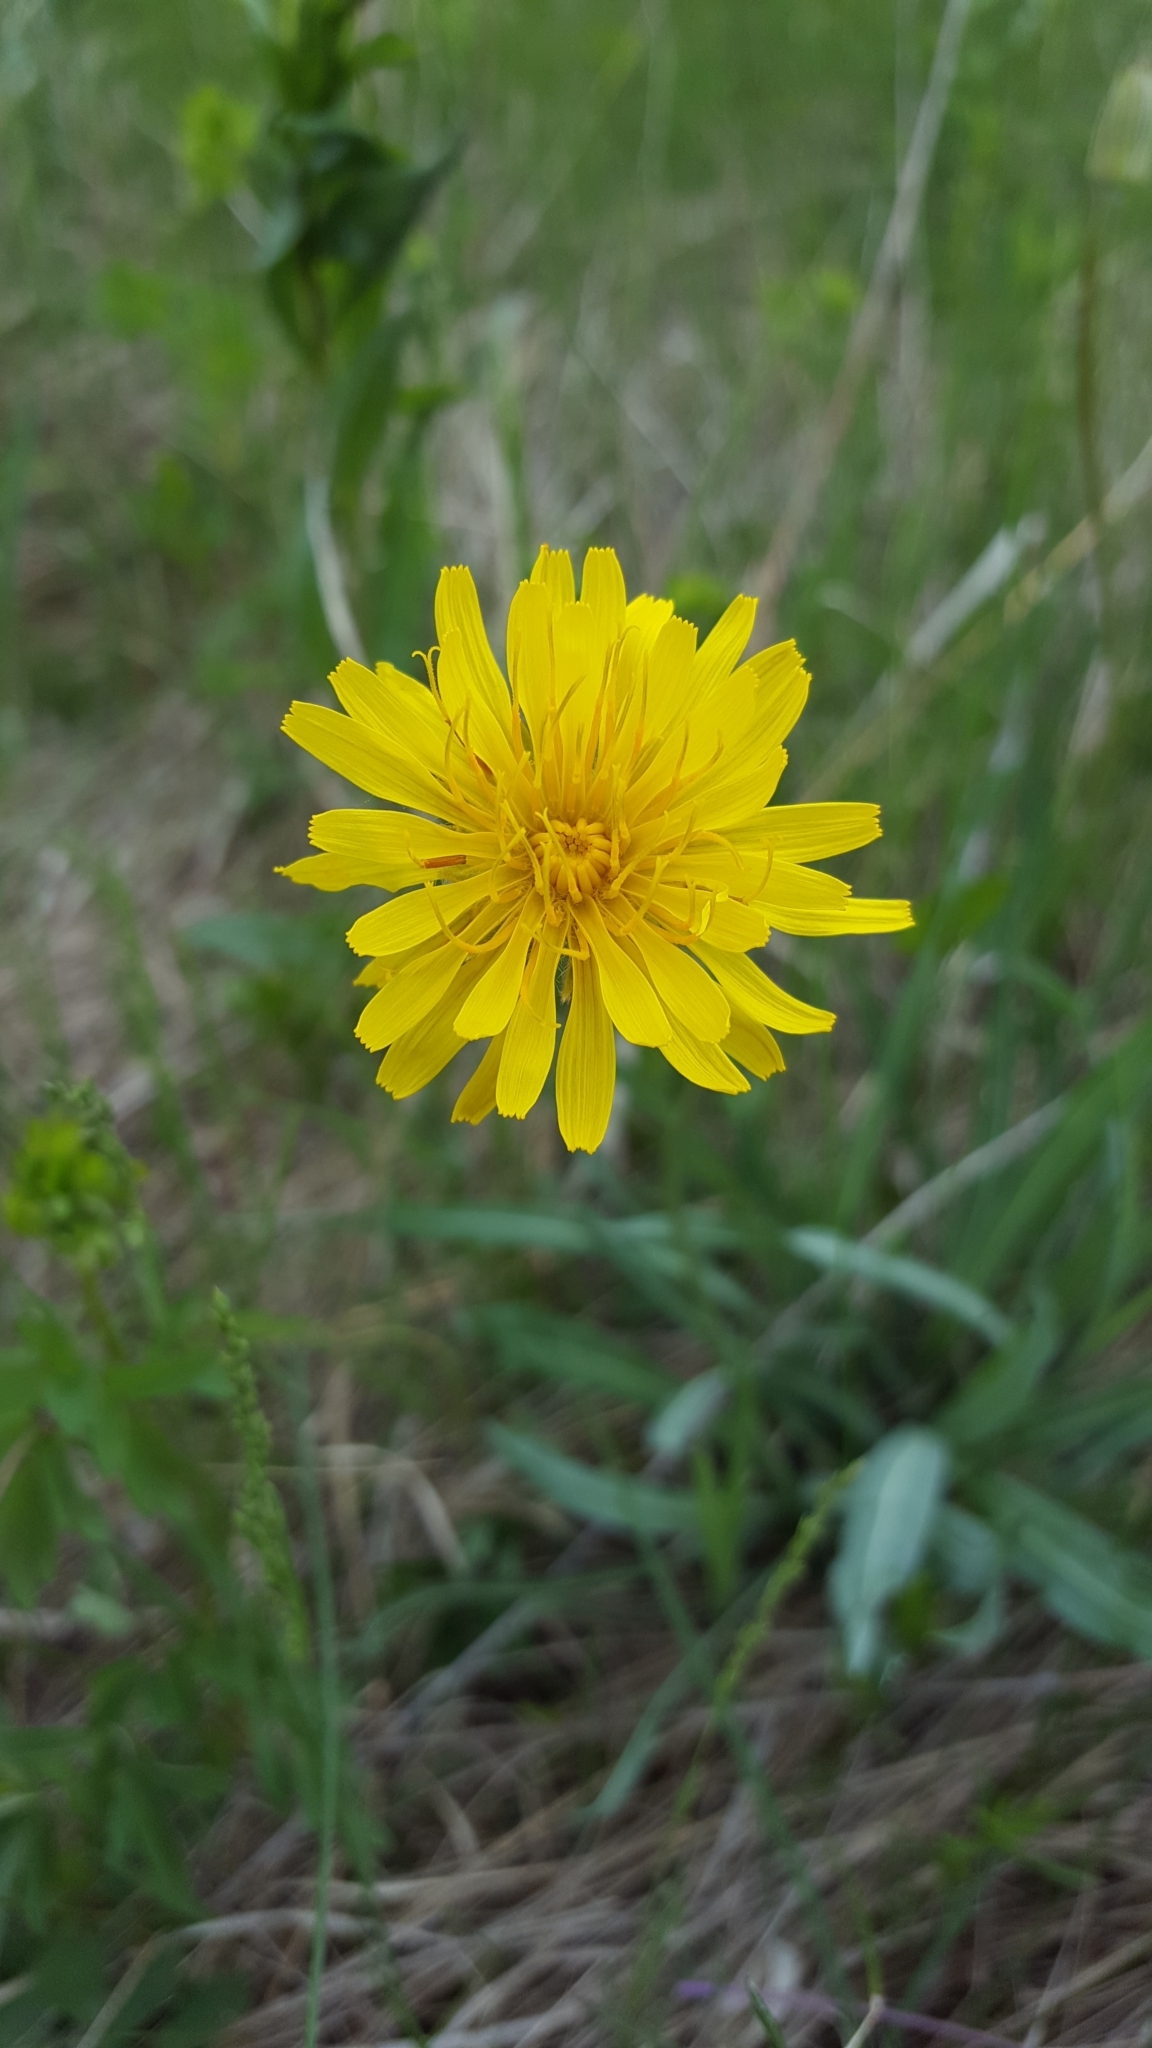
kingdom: Plantae
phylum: Tracheophyta
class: Magnoliopsida
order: Asterales
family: Asteraceae
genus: Agoseris
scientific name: Agoseris glauca
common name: Prairie agoseris
